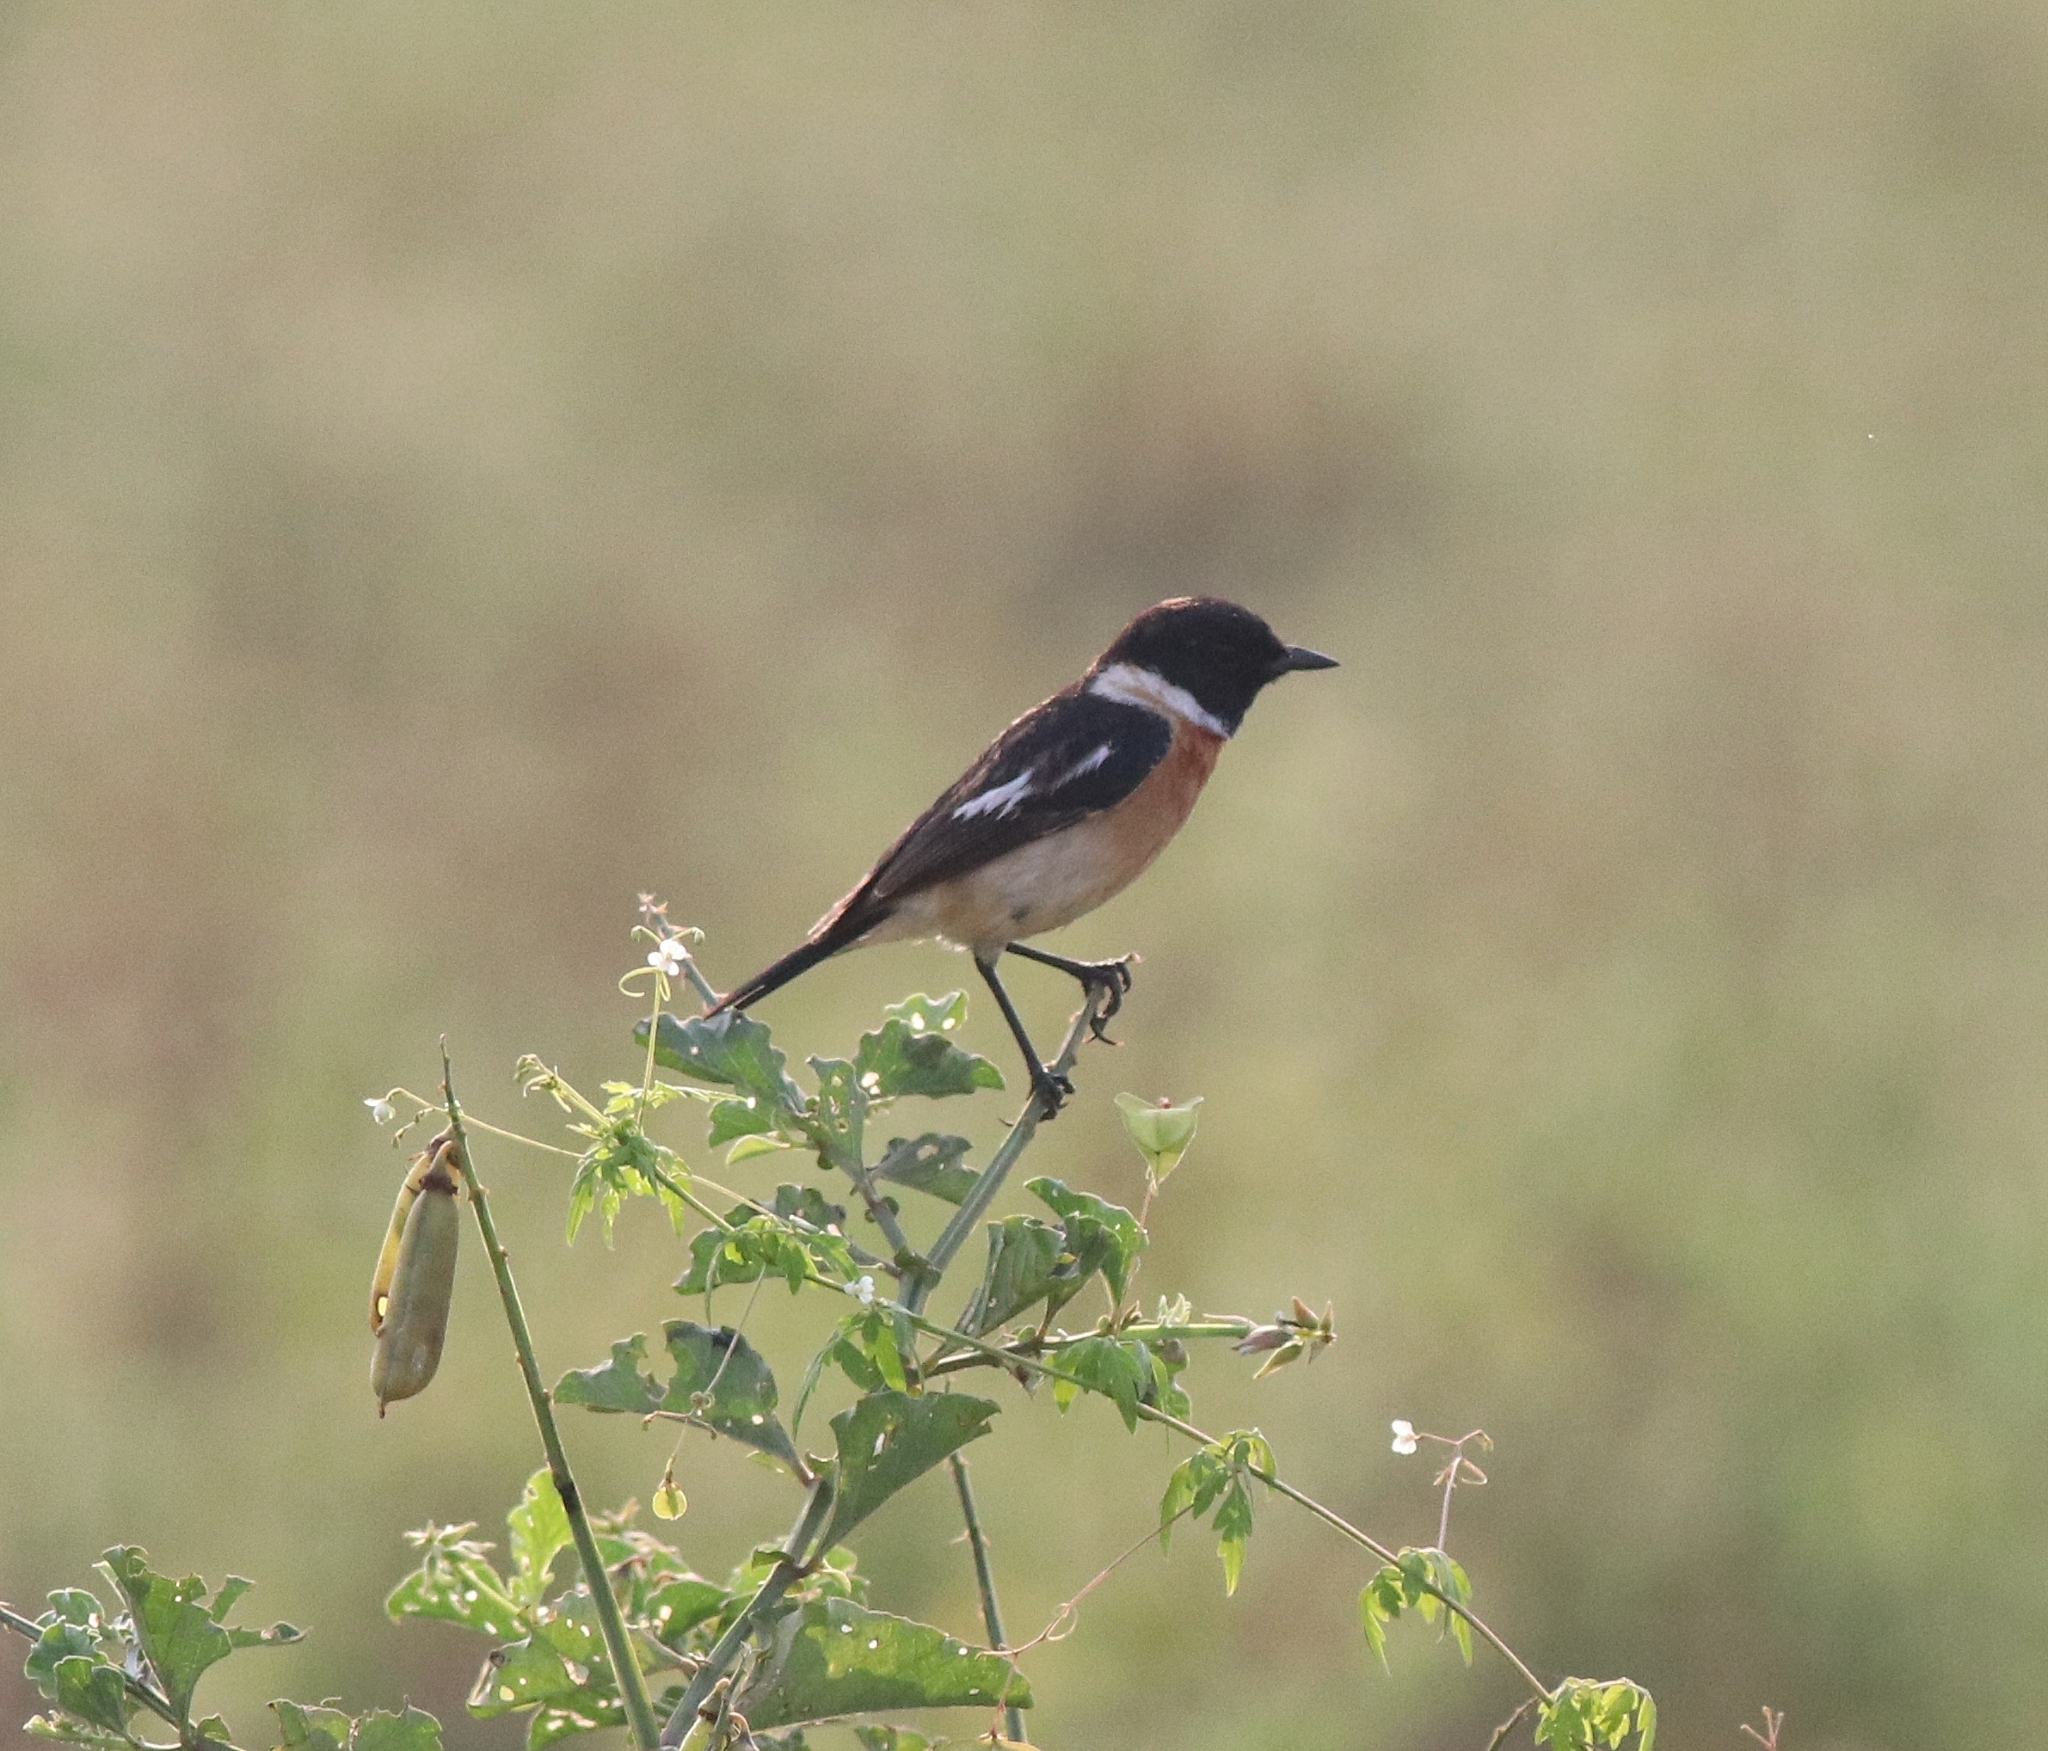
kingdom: Animalia
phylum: Chordata
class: Aves
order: Passeriformes
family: Muscicapidae
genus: Saxicola
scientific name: Saxicola maurus
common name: Siberian stonechat
